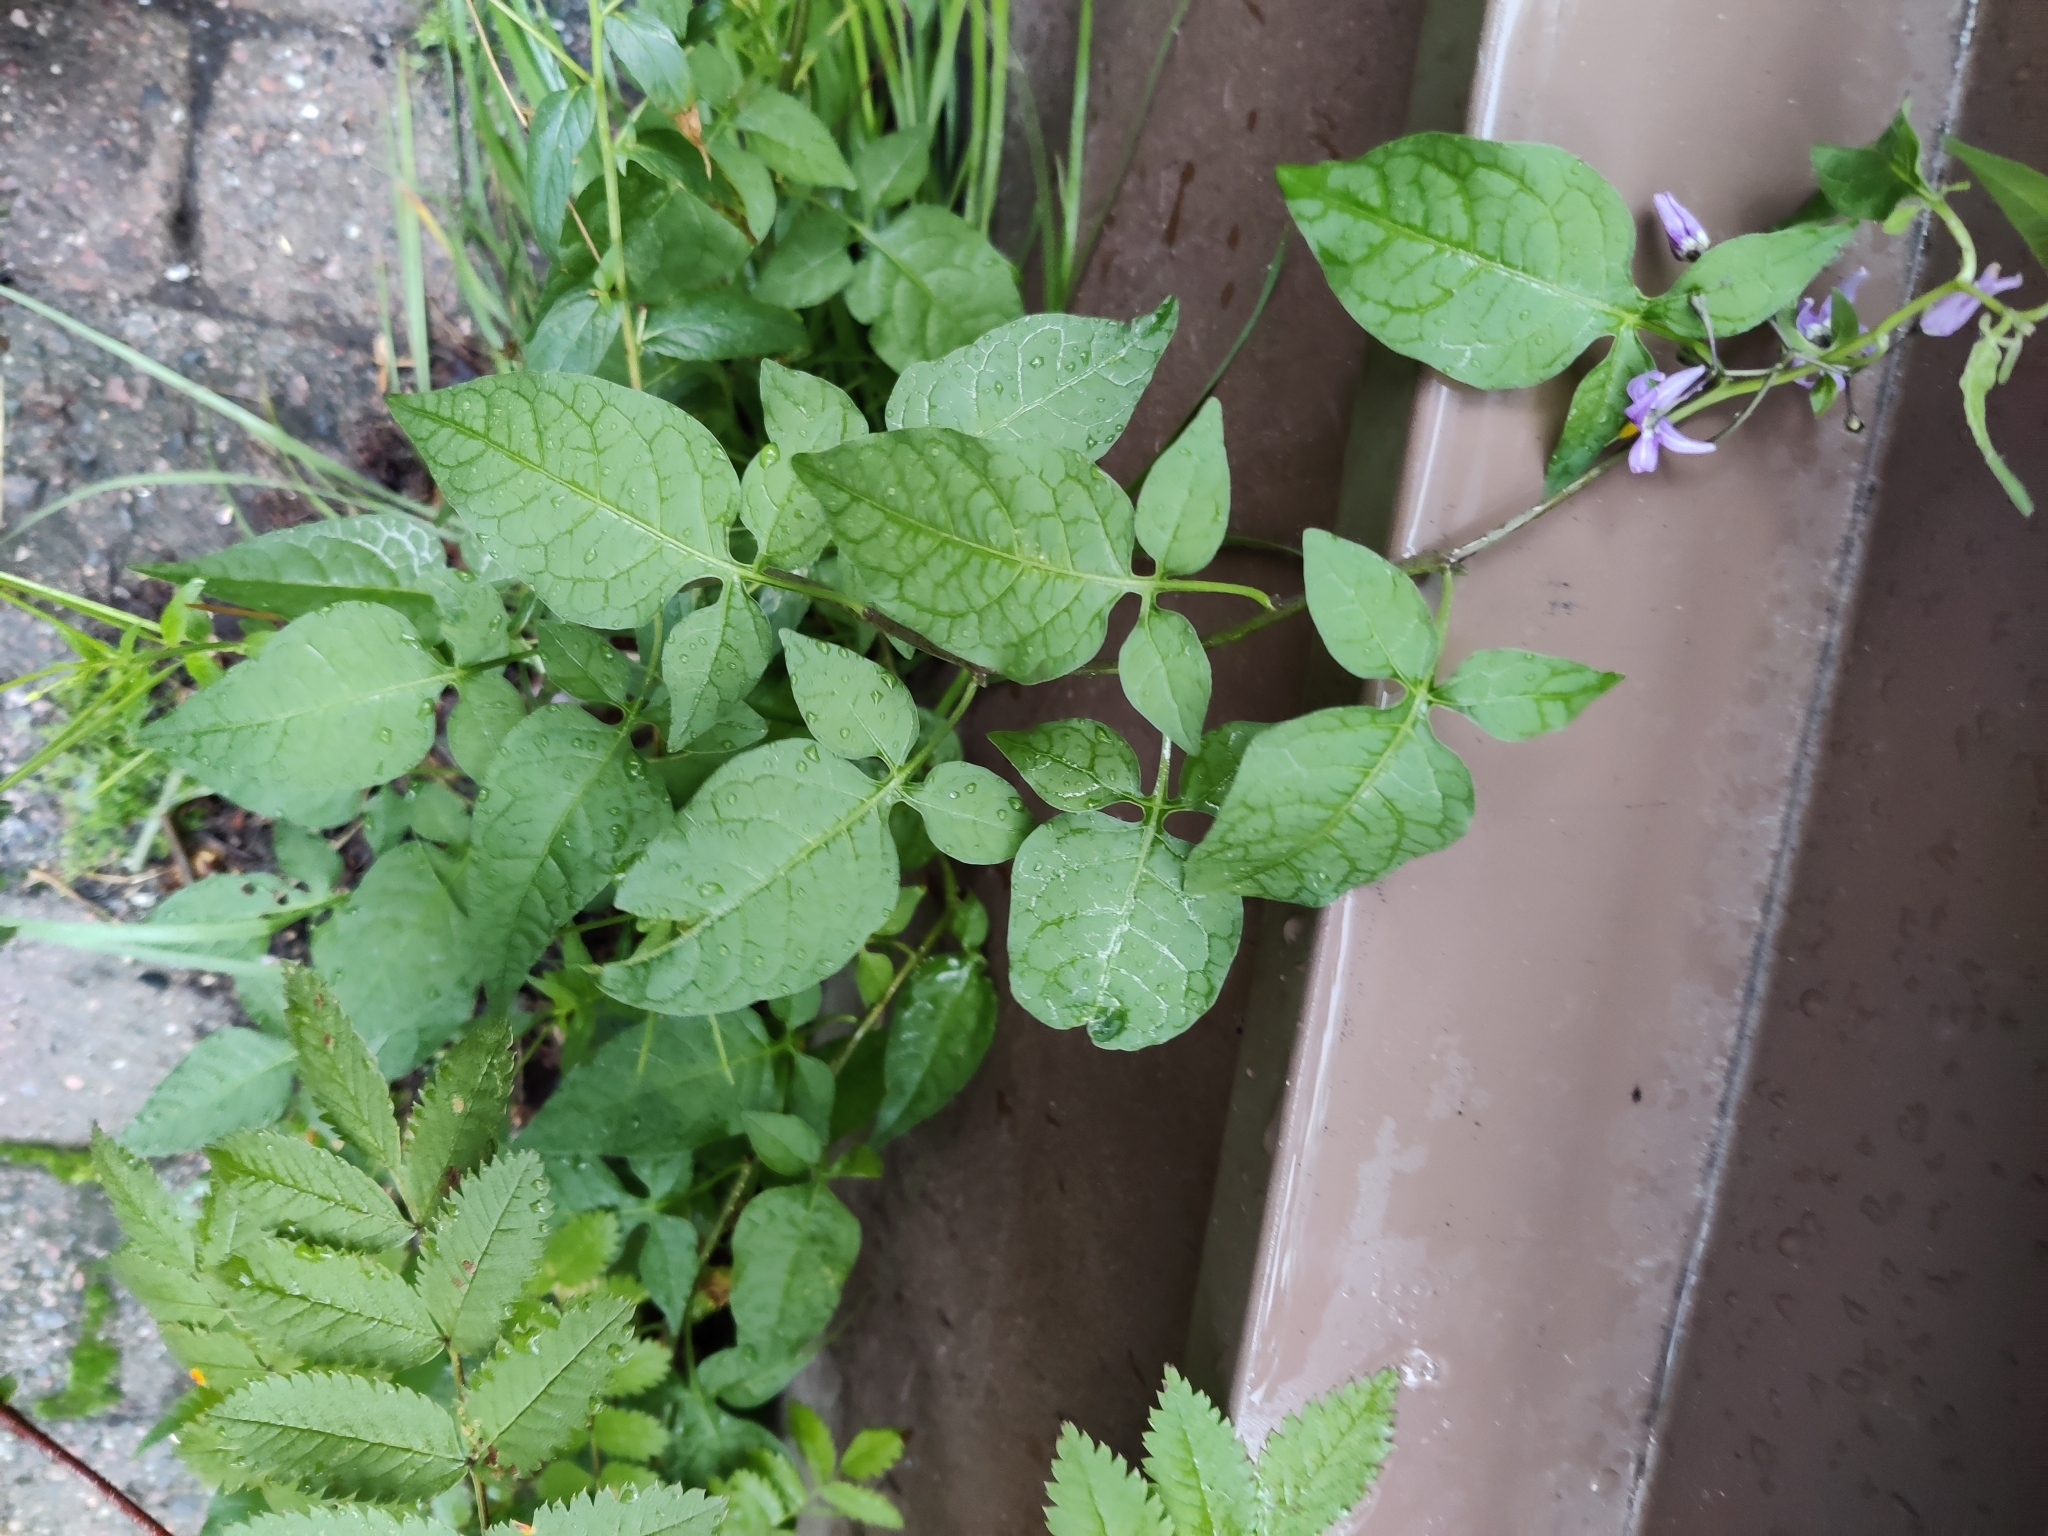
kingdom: Plantae
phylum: Tracheophyta
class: Magnoliopsida
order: Solanales
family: Solanaceae
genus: Solanum
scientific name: Solanum dulcamara
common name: Climbing nightshade
